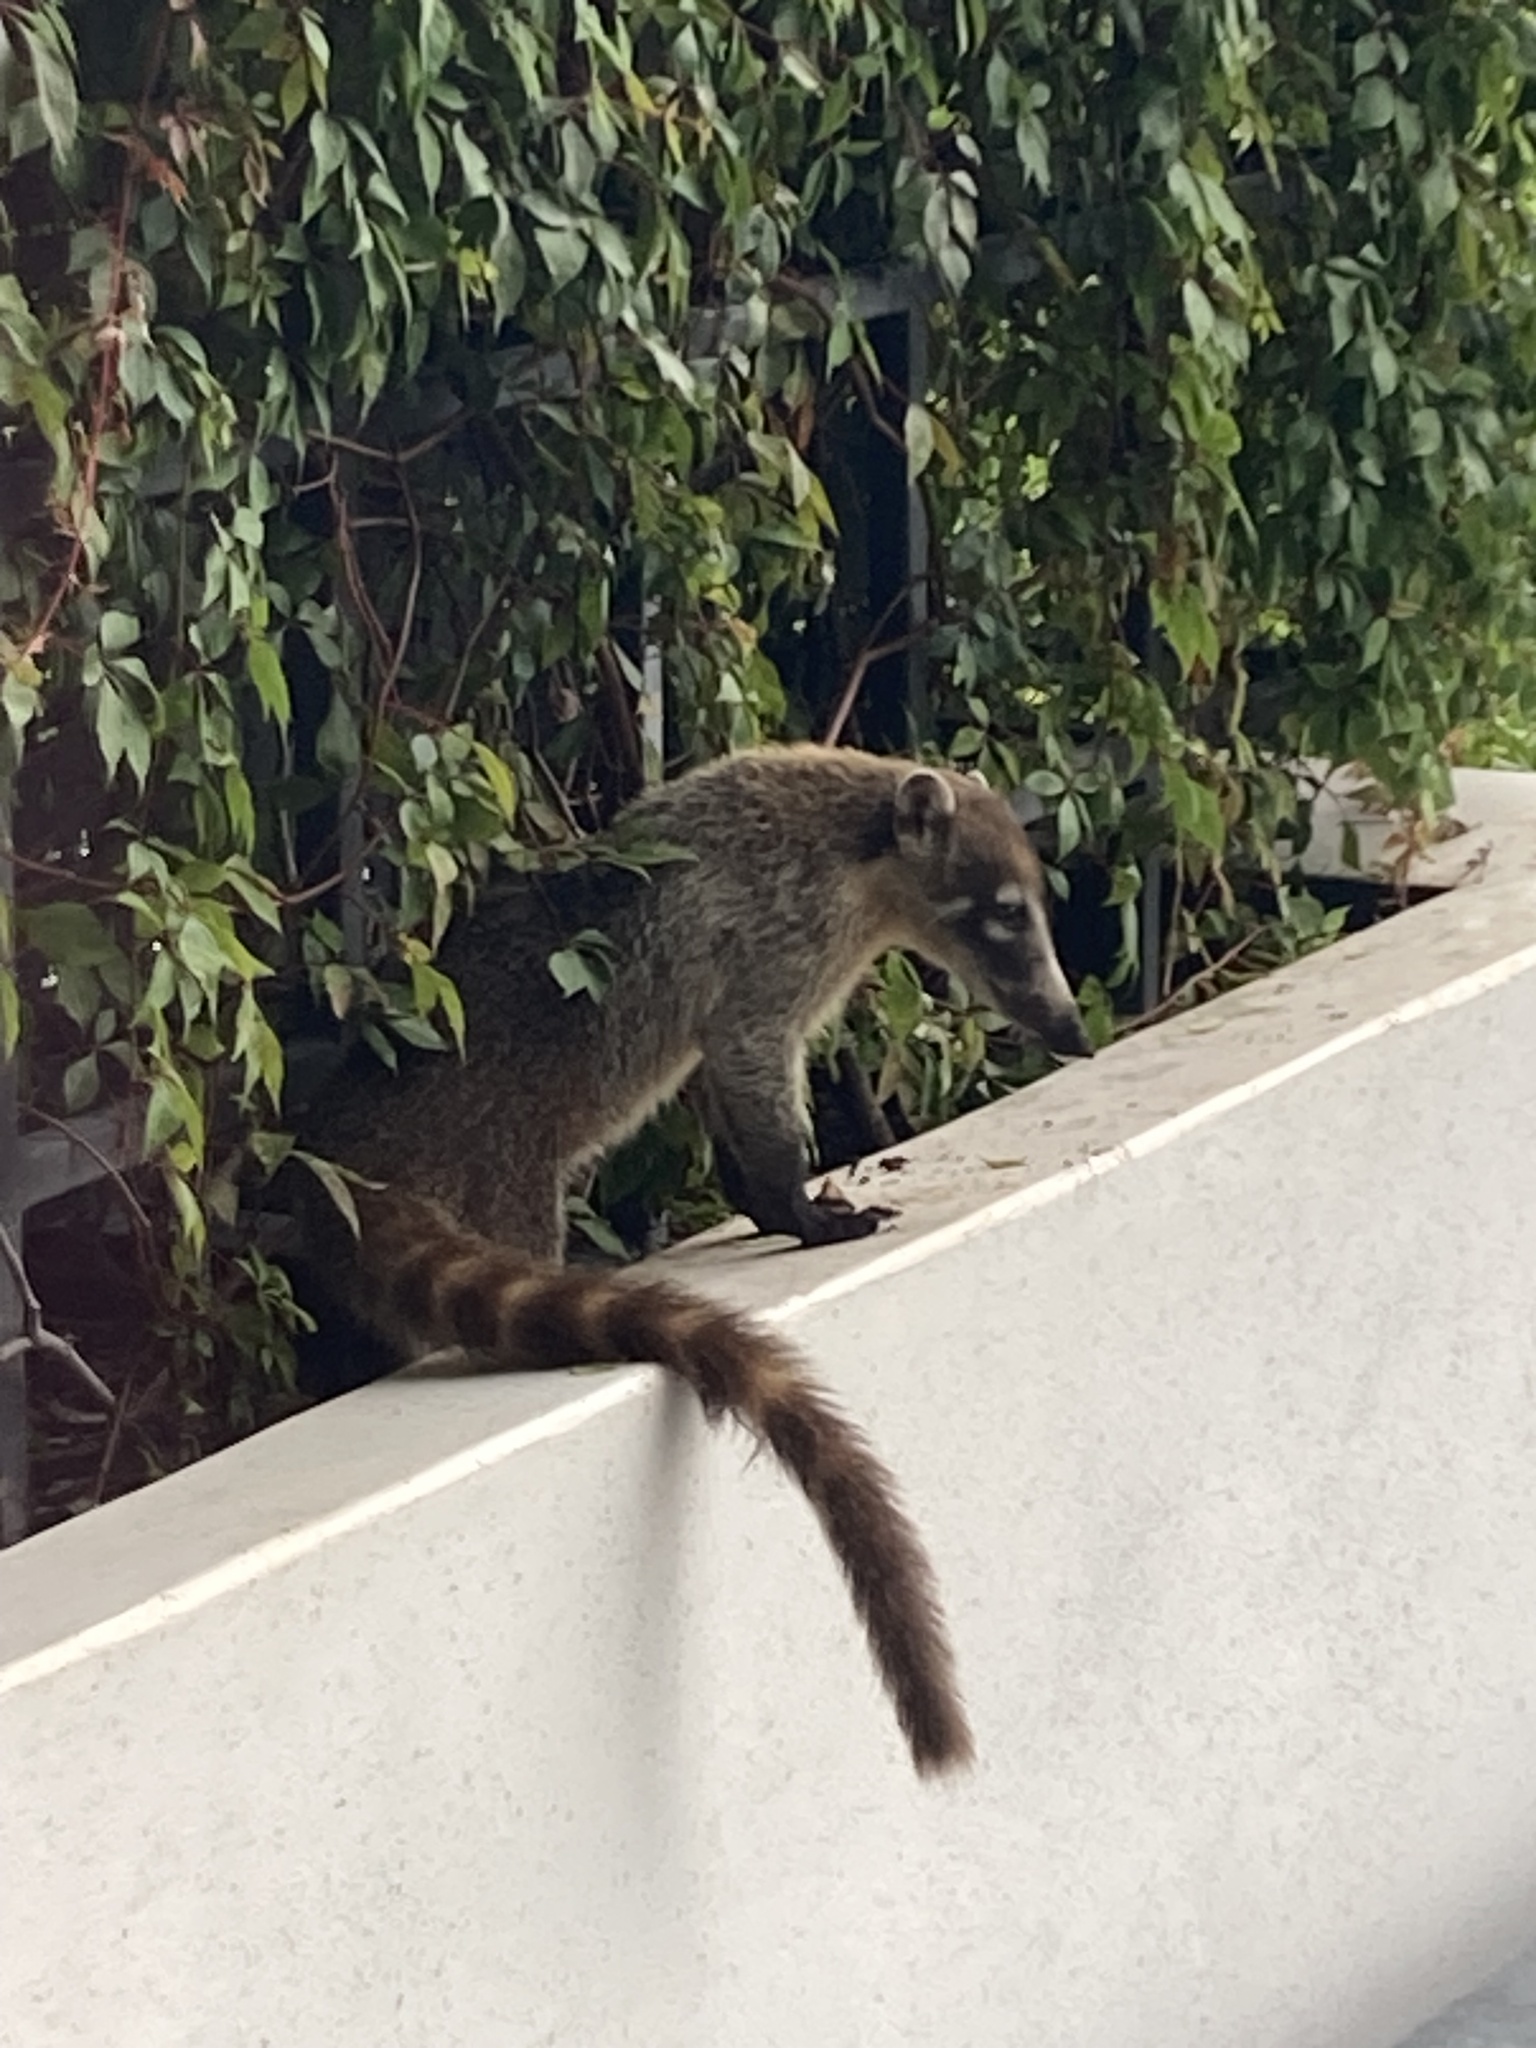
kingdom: Animalia
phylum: Chordata
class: Mammalia
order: Carnivora
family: Procyonidae
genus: Nasua
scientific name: Nasua narica
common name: White-nosed coati
